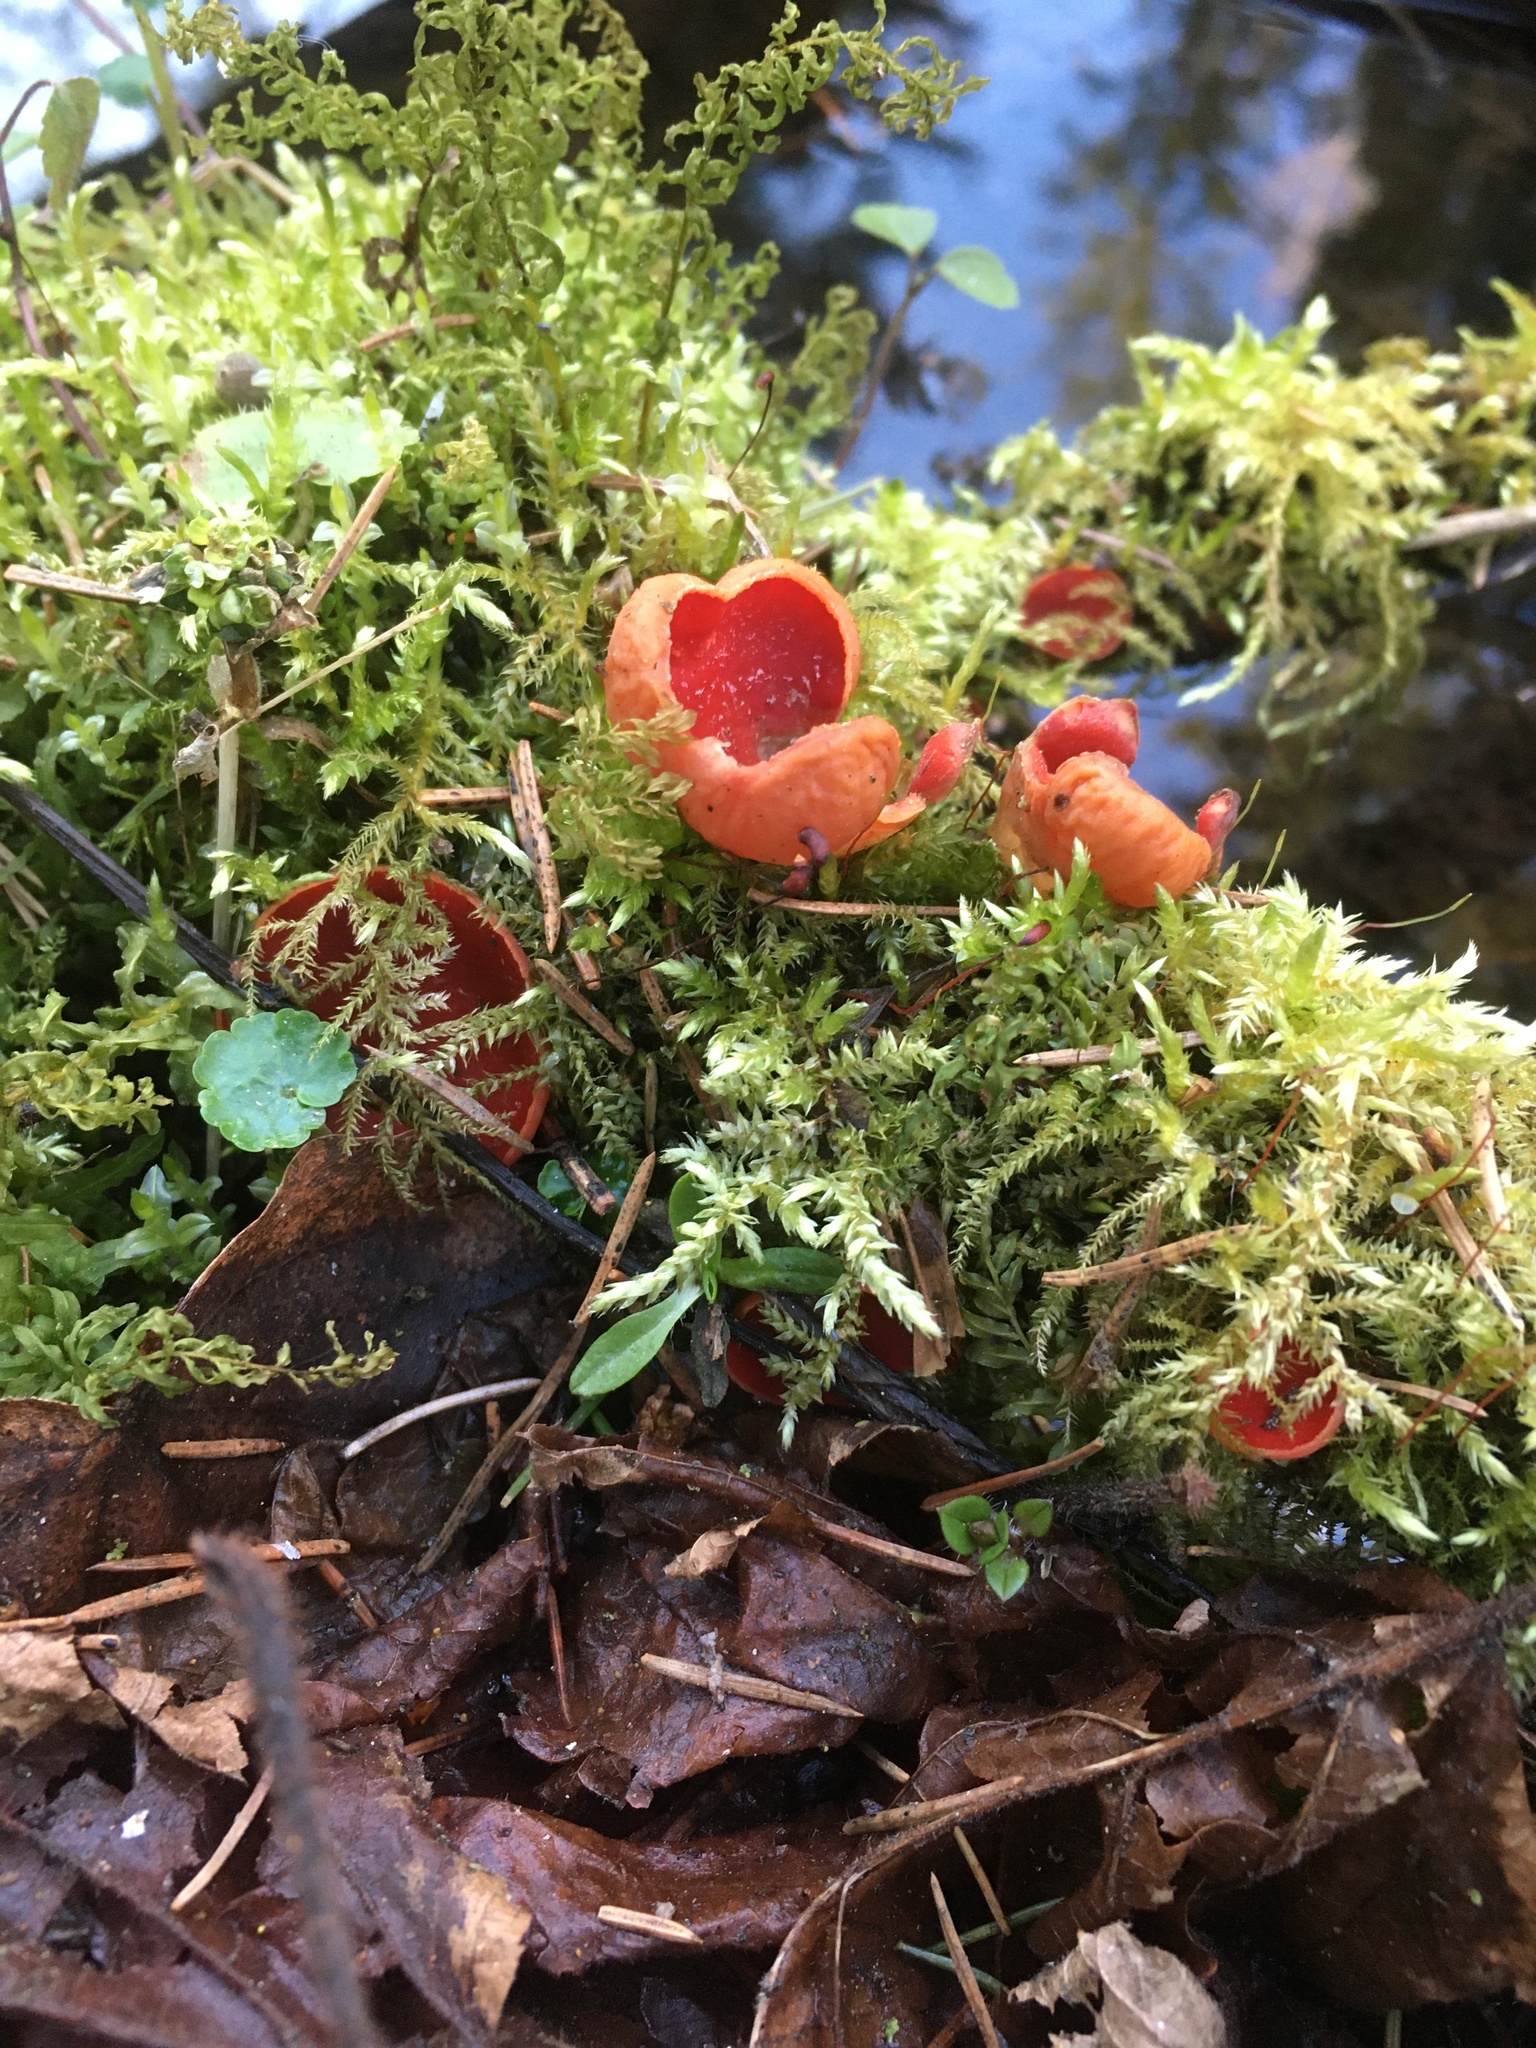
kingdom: Fungi
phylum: Ascomycota
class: Pezizomycetes
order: Pezizales
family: Sarcoscyphaceae
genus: Sarcoscypha
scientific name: Sarcoscypha austriaca
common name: Scarlet elfcup
